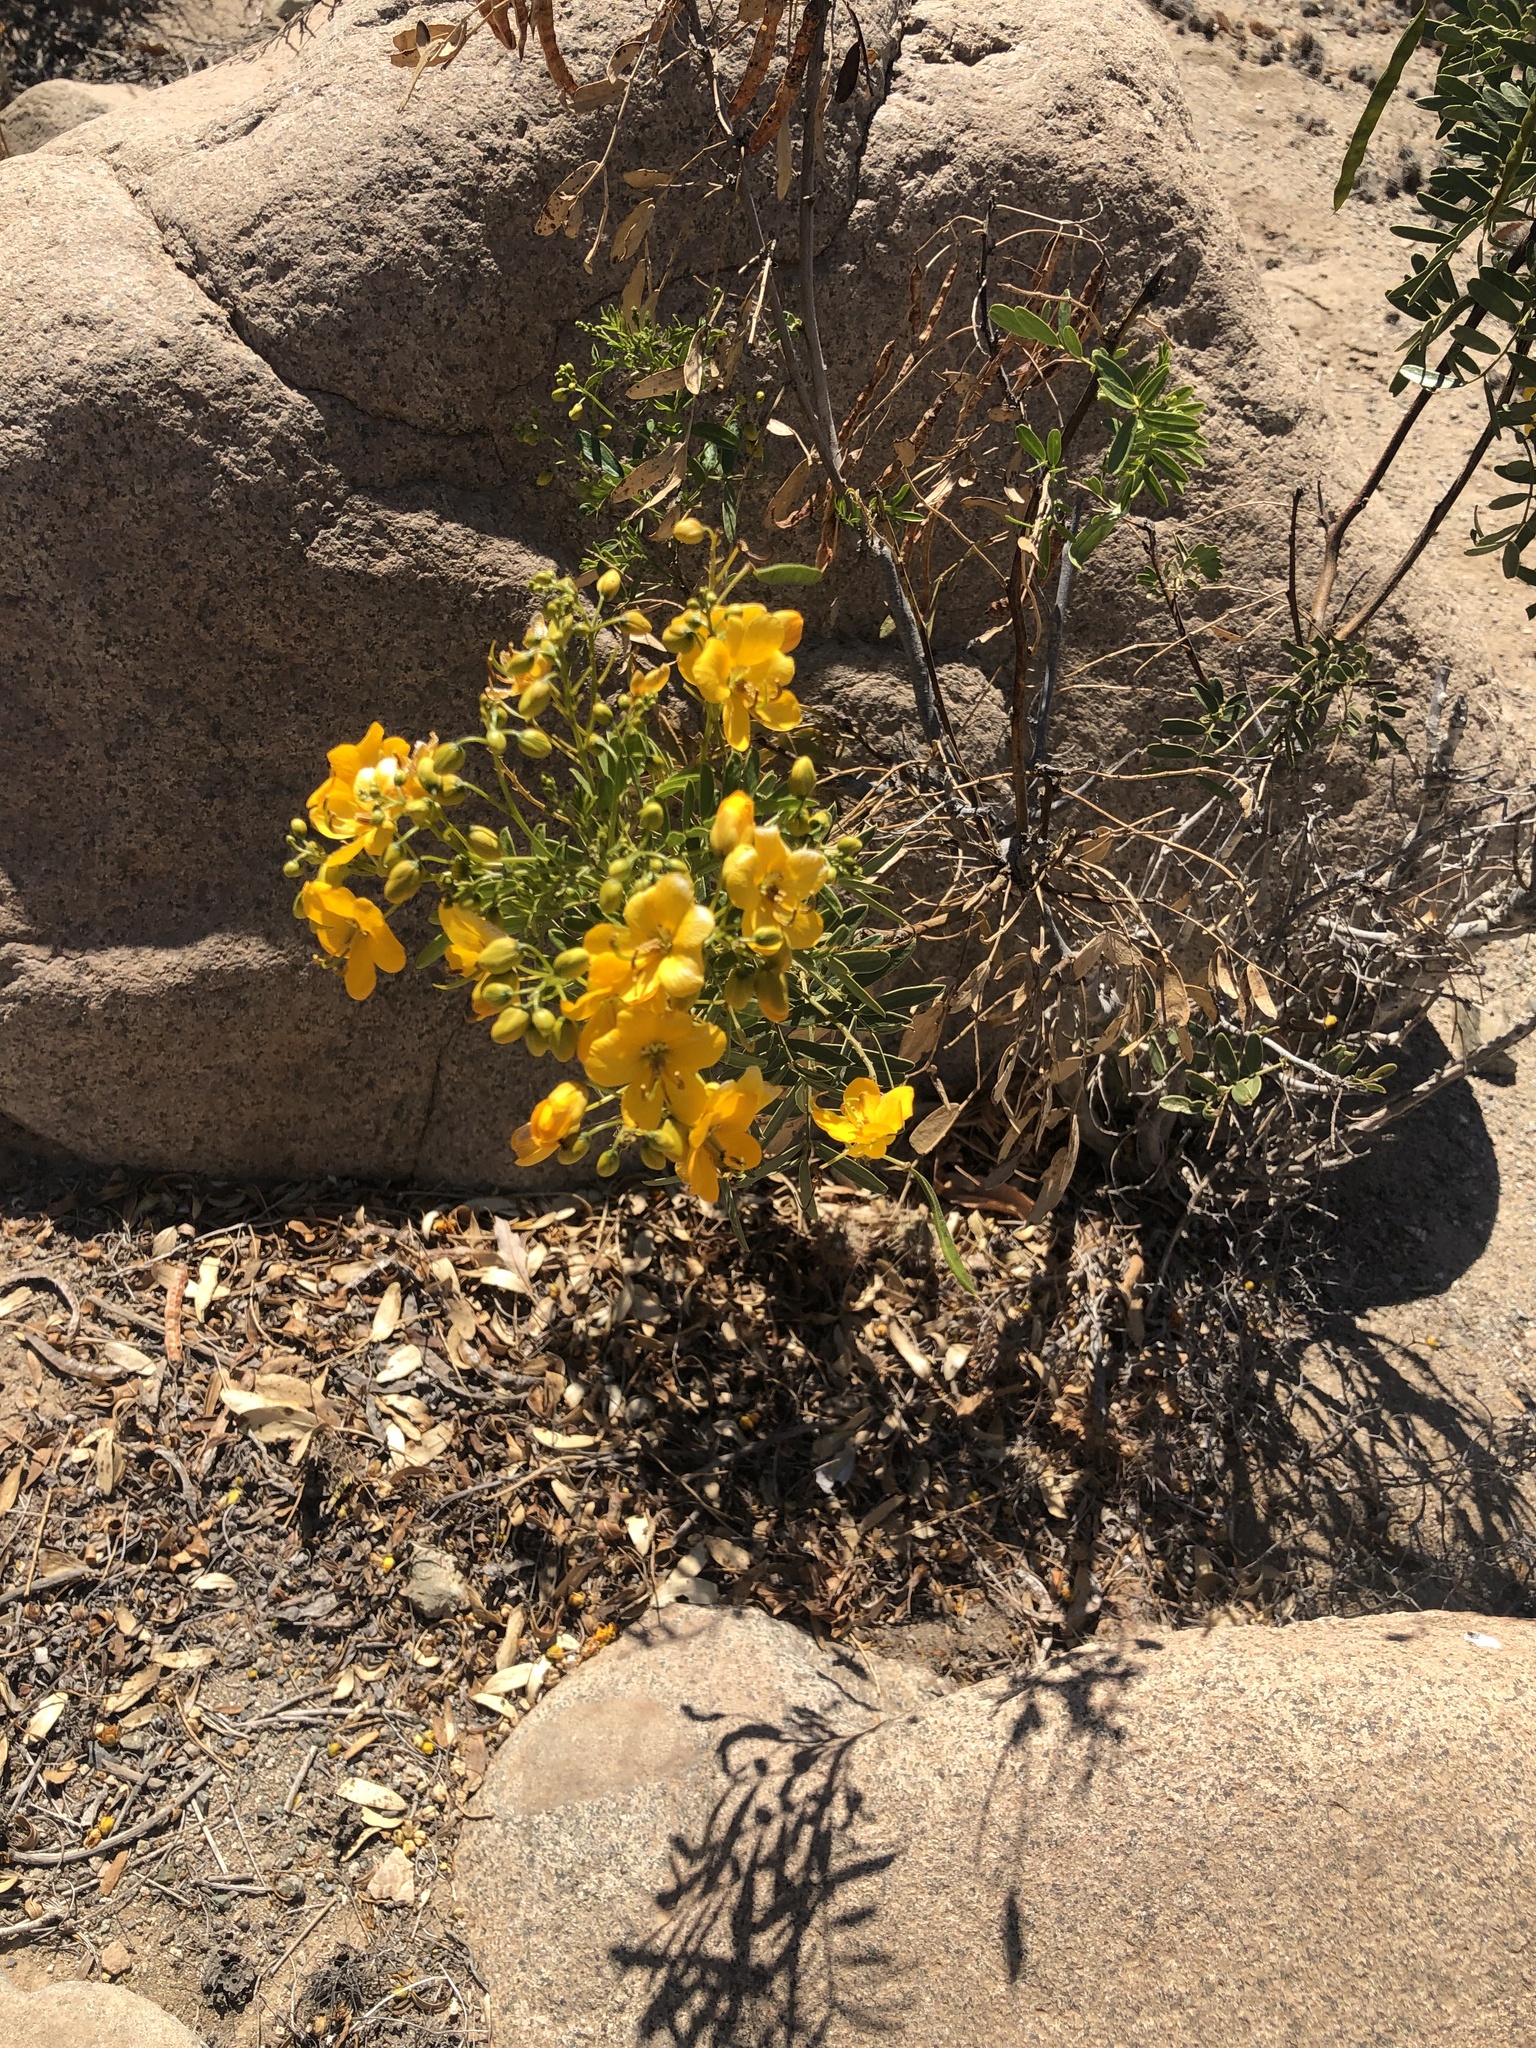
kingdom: Plantae
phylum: Tracheophyta
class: Magnoliopsida
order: Fabales
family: Fabaceae
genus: Senna
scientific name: Senna cumingii
